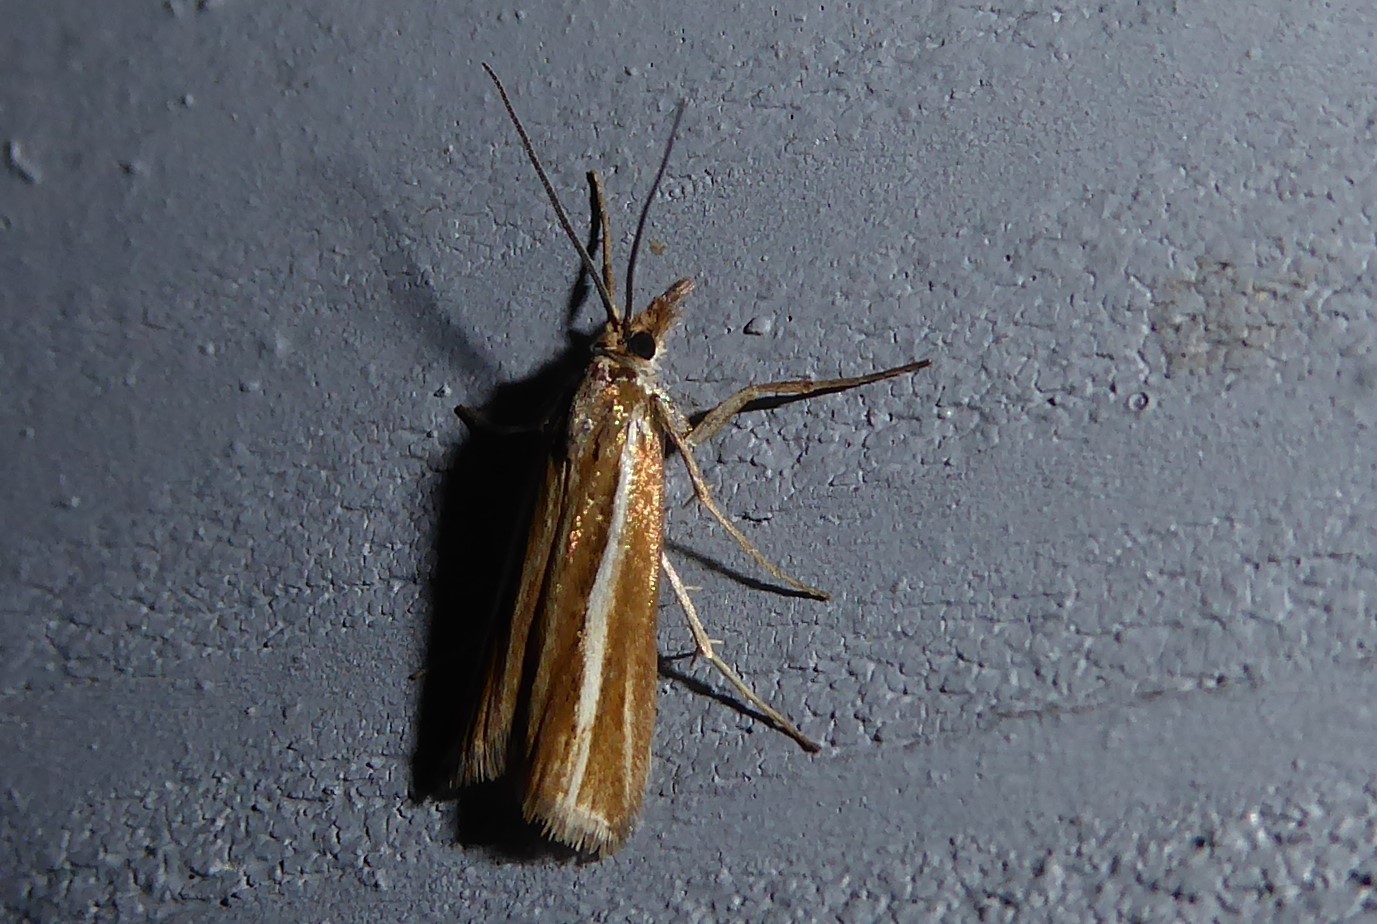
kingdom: Animalia
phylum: Arthropoda
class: Insecta
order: Lepidoptera
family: Crambidae
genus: Orocrambus
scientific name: Orocrambus aethonellus
